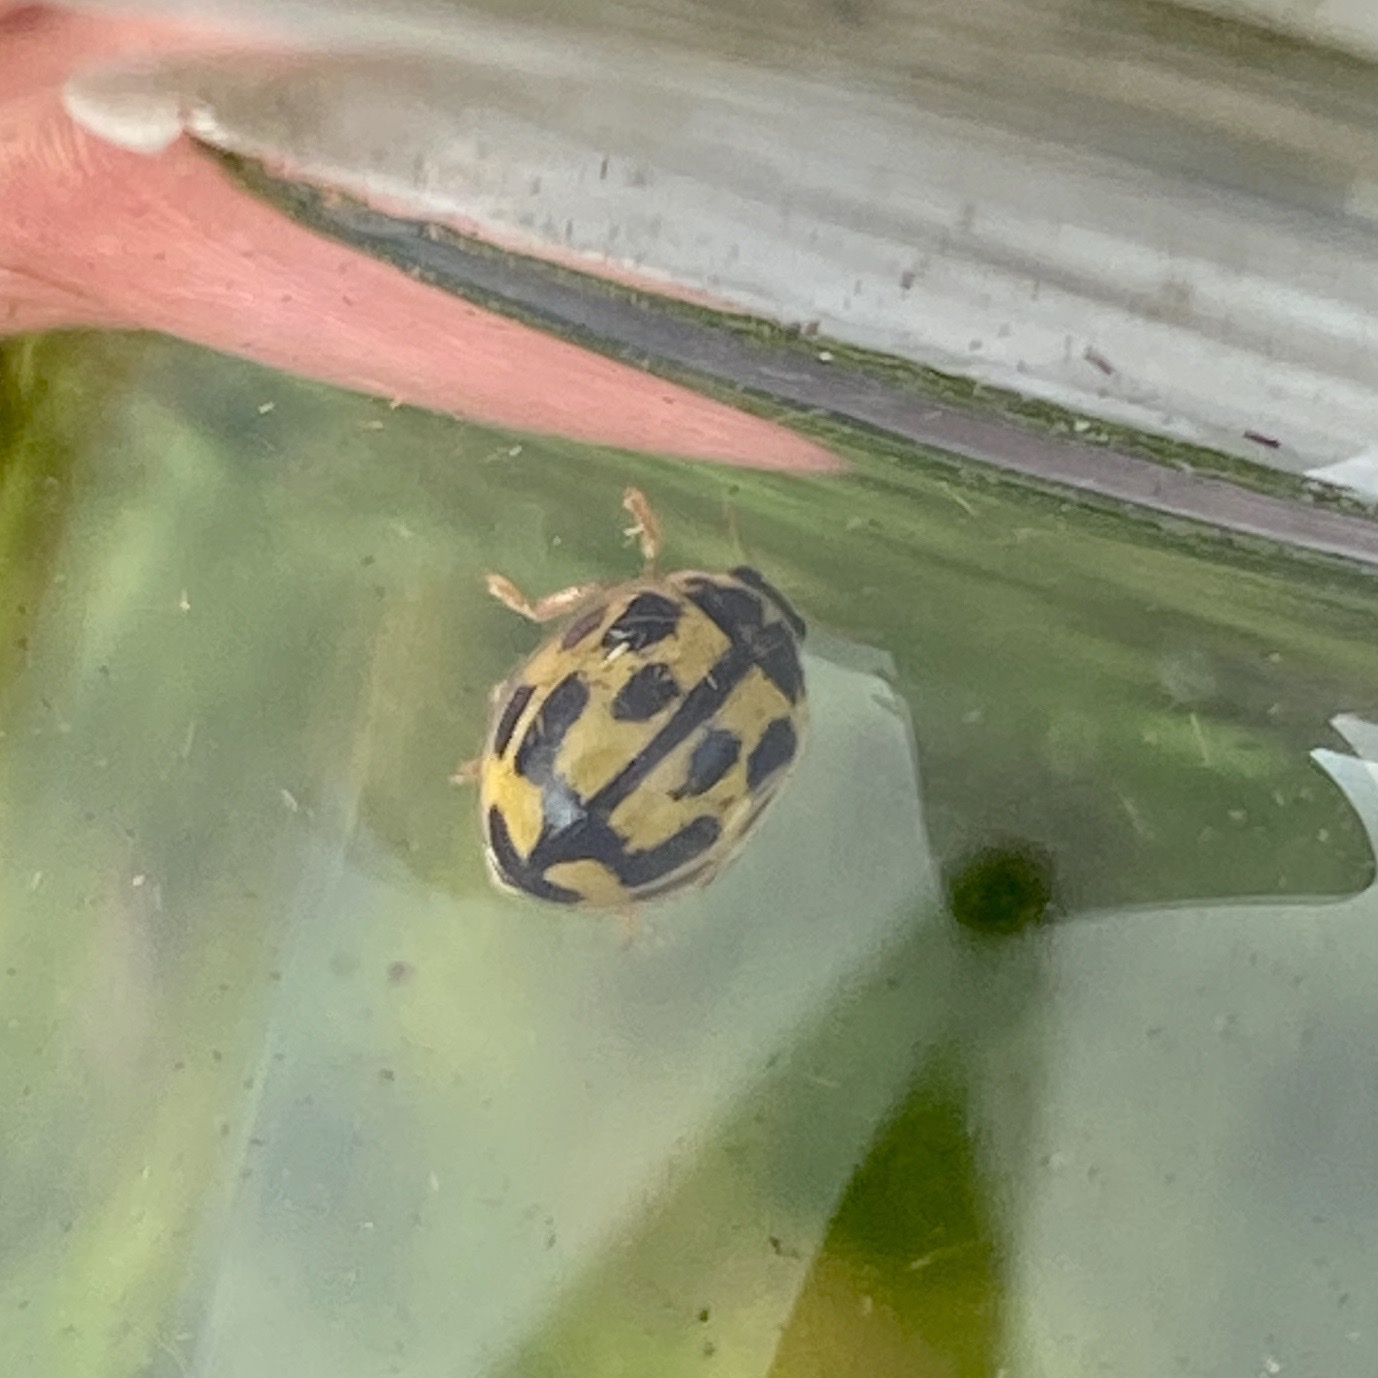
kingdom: Animalia
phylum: Arthropoda
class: Insecta
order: Coleoptera
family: Coccinellidae
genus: Propylaea
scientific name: Propylaea quatuordecimpunctata
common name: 14-spotted ladybird beetle
